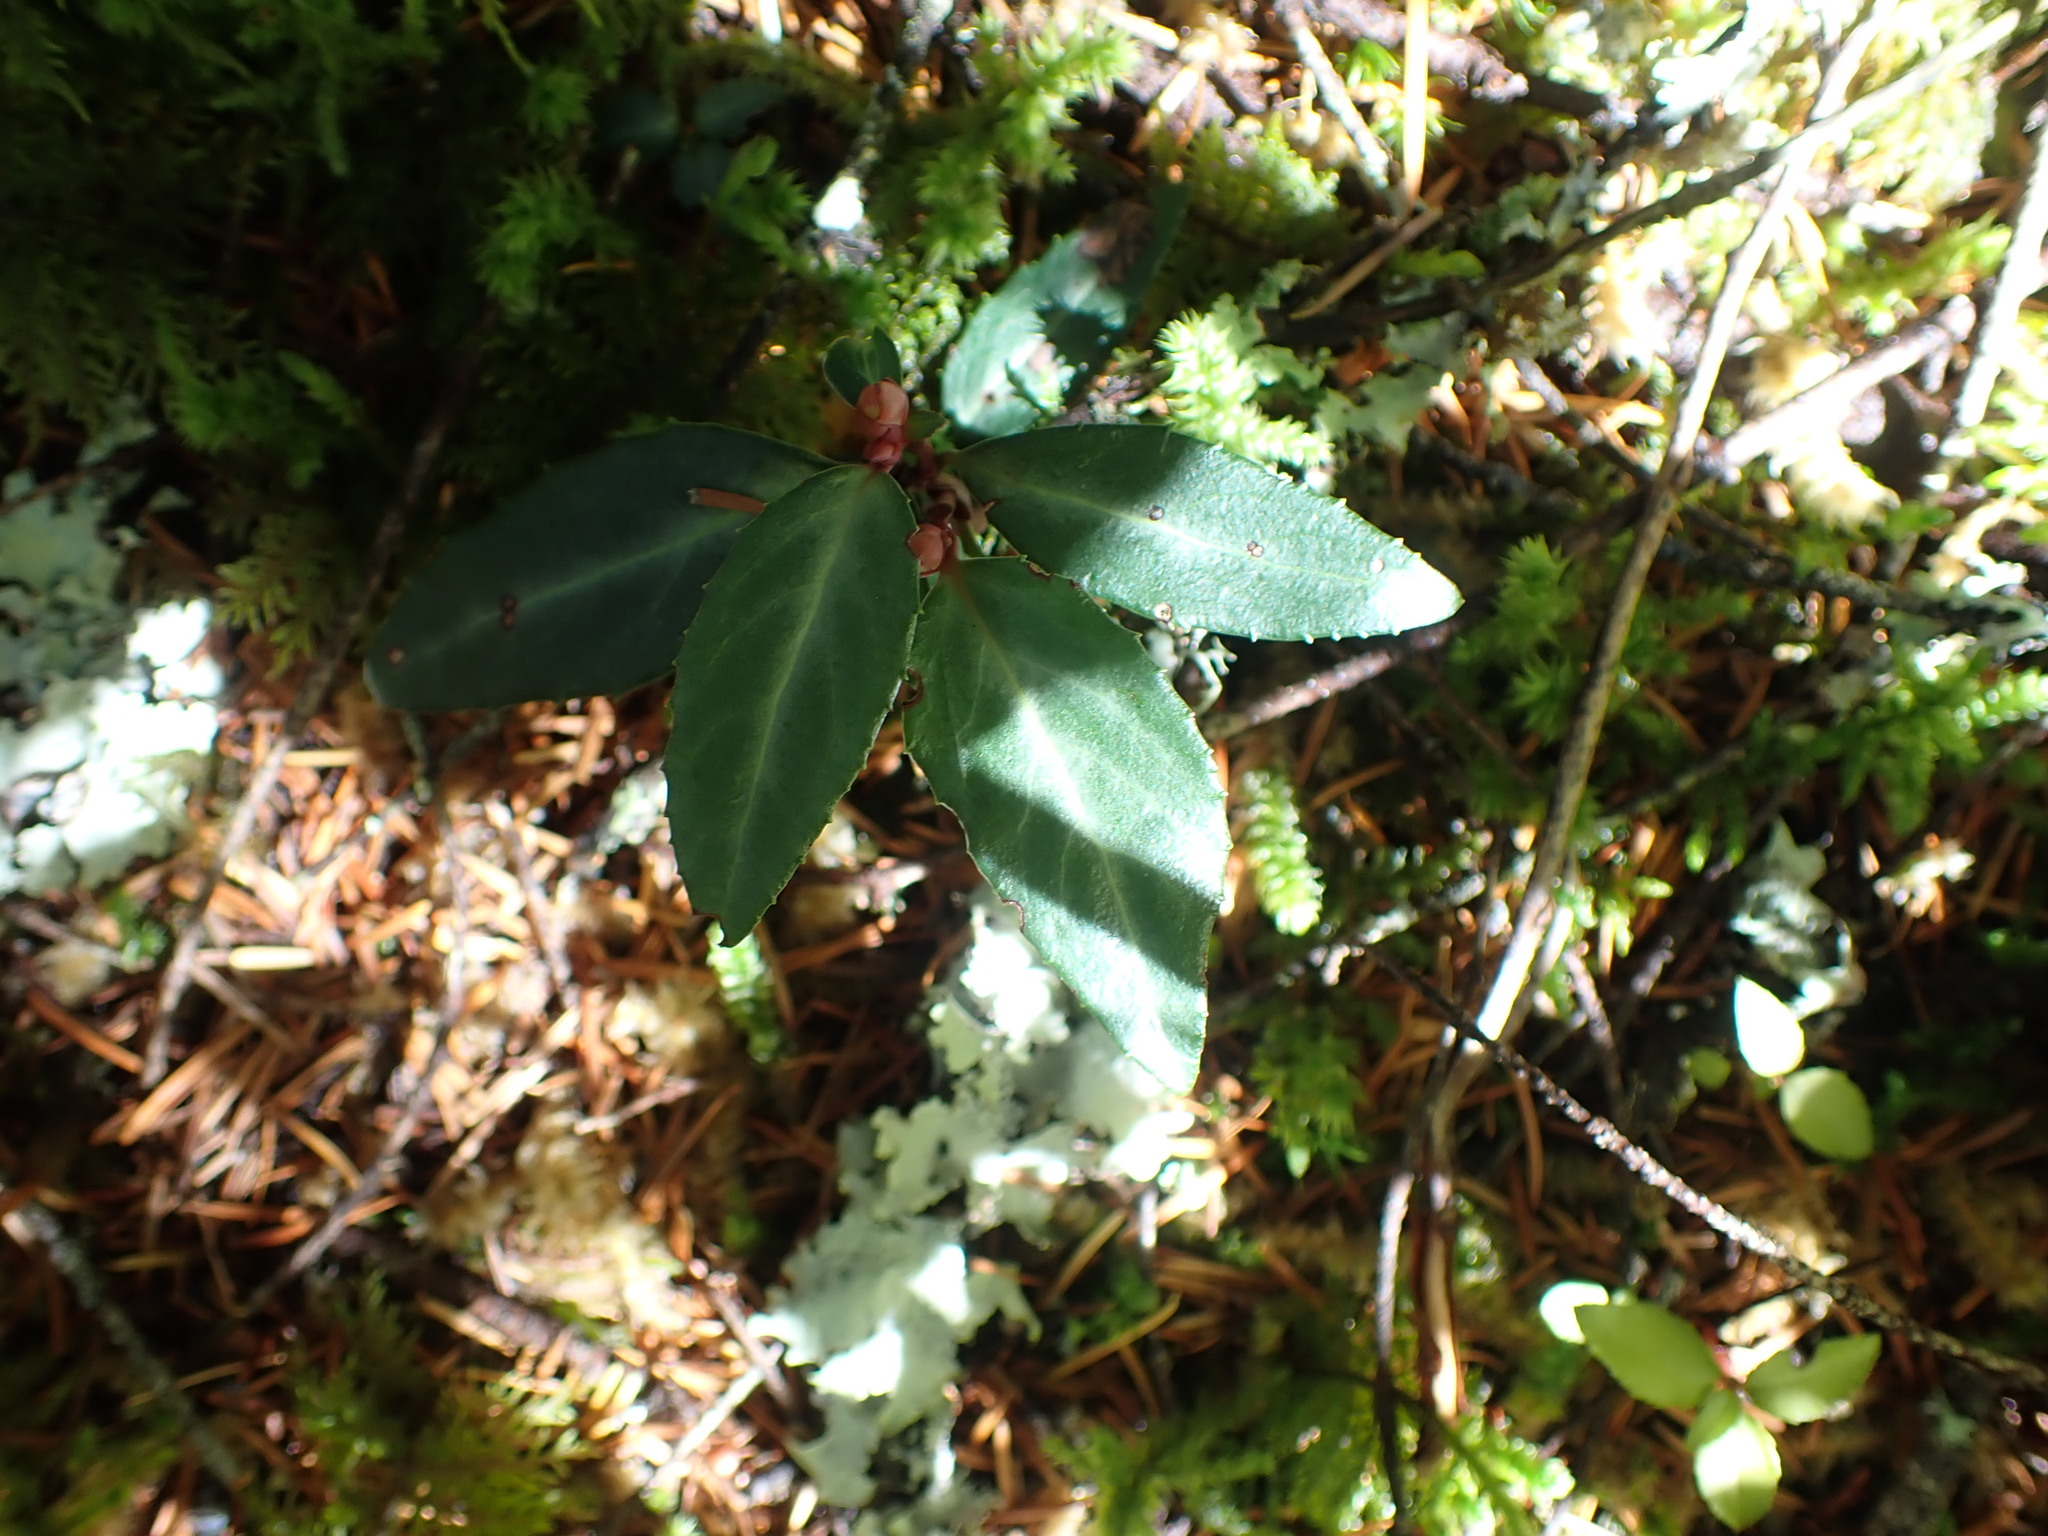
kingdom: Plantae
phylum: Tracheophyta
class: Magnoliopsida
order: Ericales
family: Ericaceae
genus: Chimaphila
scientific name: Chimaphila menziesii
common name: Menzies' pipsissewa
